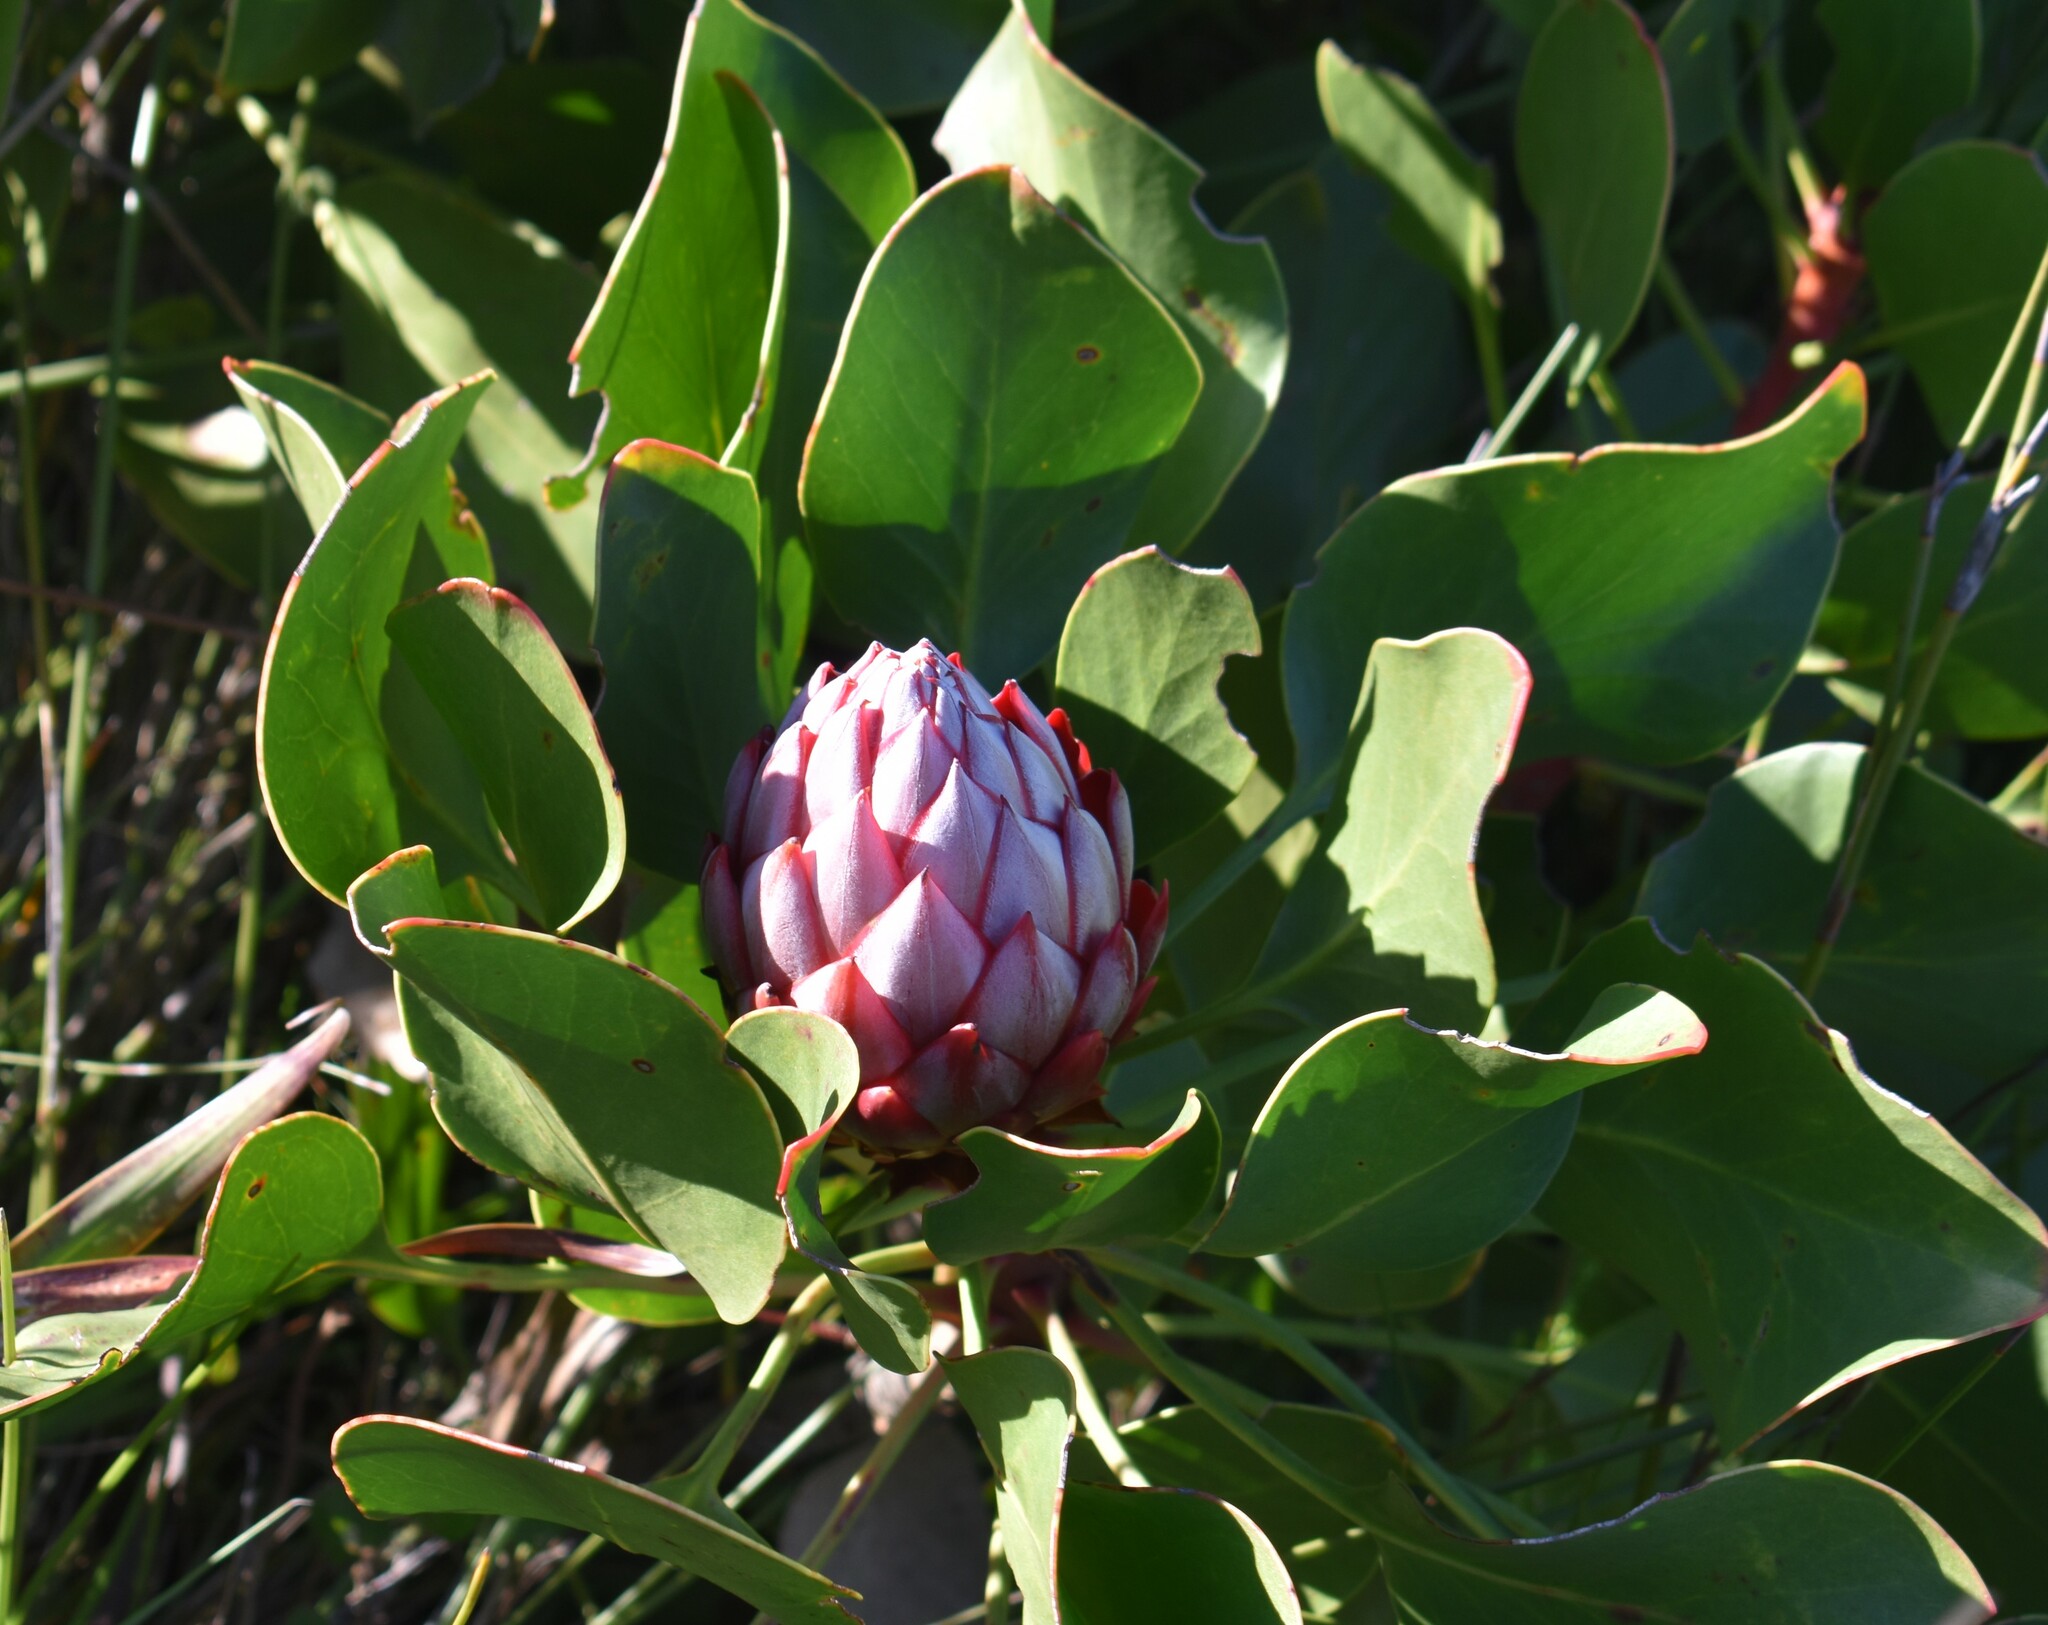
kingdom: Plantae
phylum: Tracheophyta
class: Magnoliopsida
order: Proteales
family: Proteaceae
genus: Protea
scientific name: Protea cynaroides
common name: King protea
